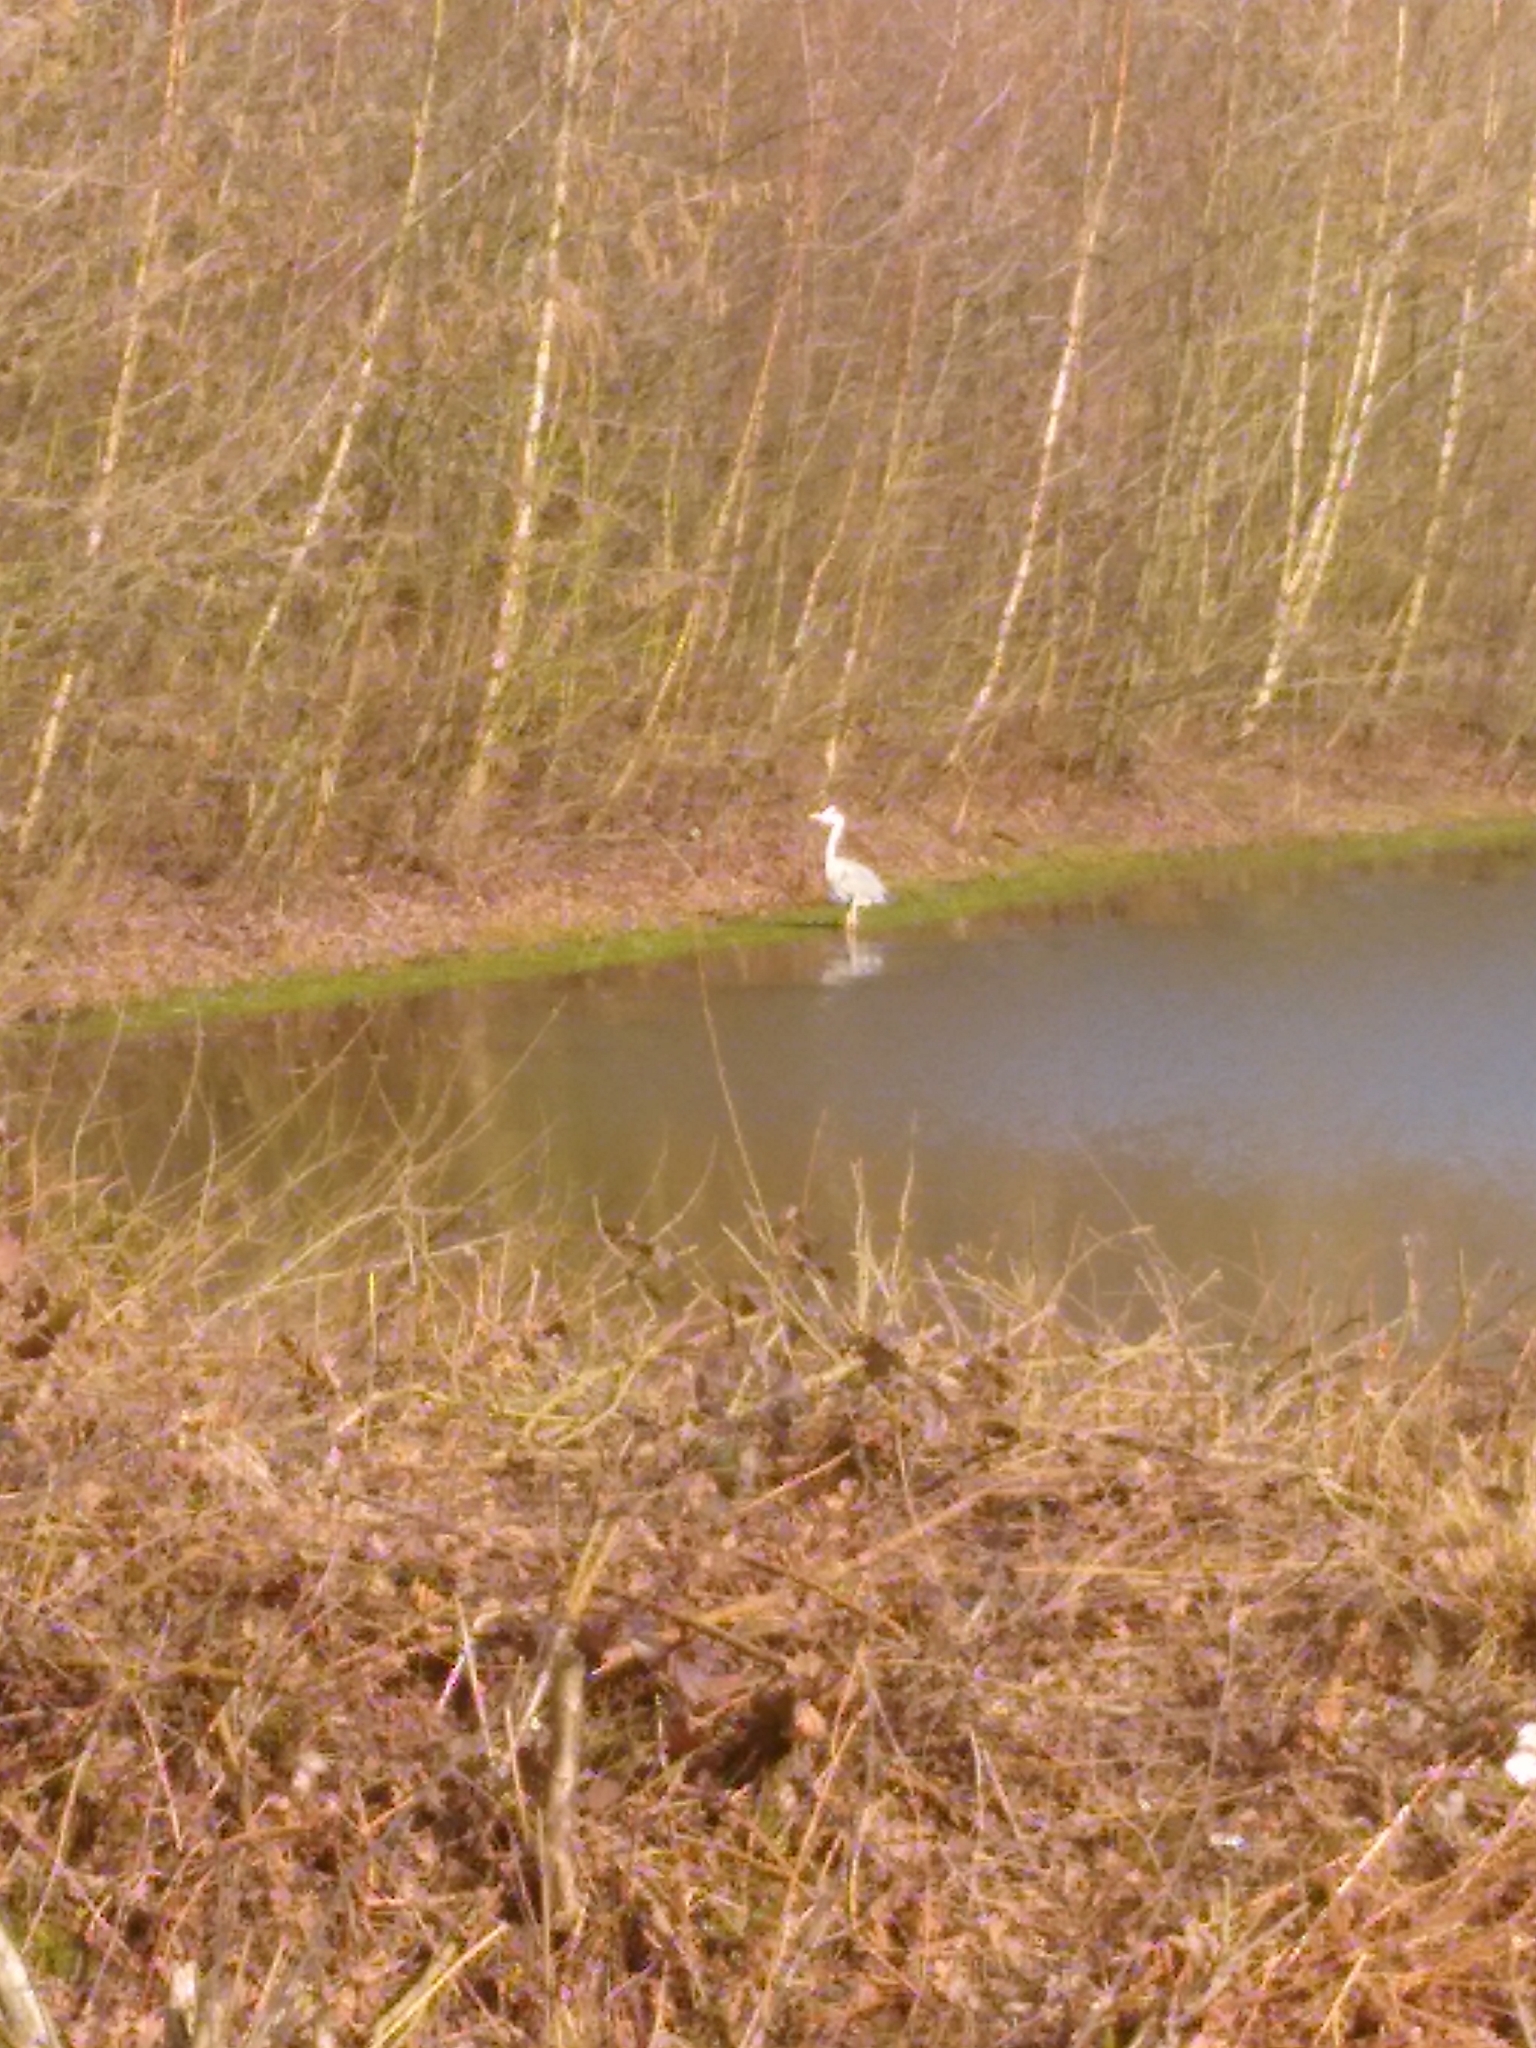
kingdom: Animalia
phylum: Chordata
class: Aves
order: Pelecaniformes
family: Ardeidae
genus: Ardea
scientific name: Ardea cinerea
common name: Grey heron
